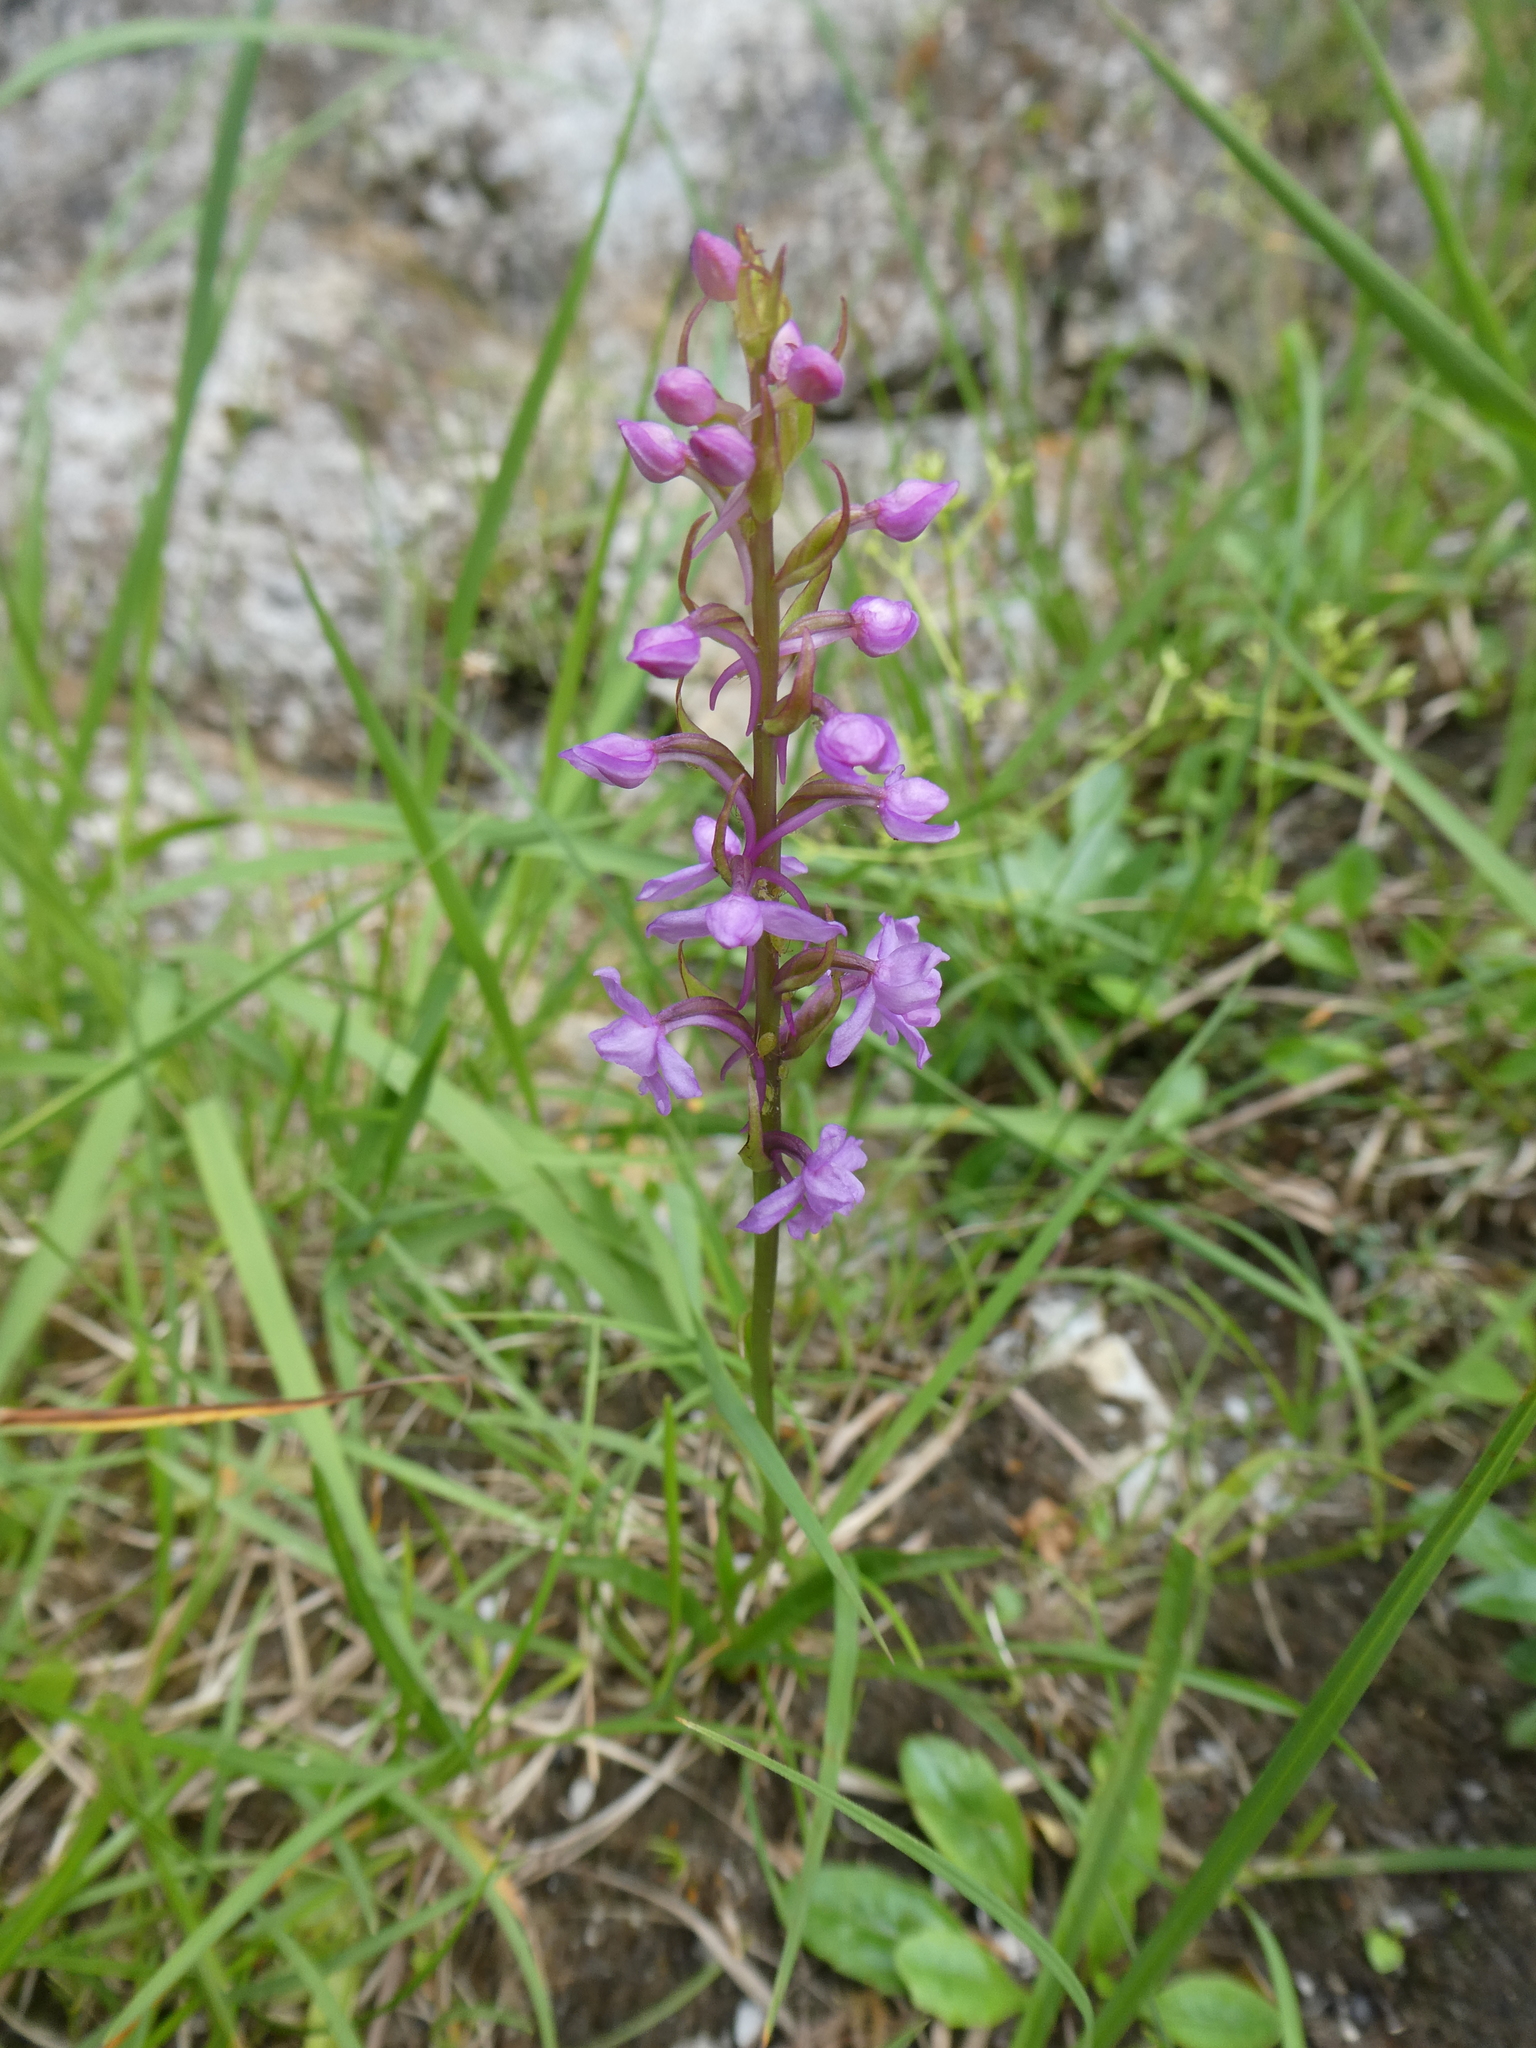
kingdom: Plantae
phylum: Tracheophyta
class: Liliopsida
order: Asparagales
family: Orchidaceae
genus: Gymnadenia
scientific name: Gymnadenia conopsea
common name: Fragrant orchid
